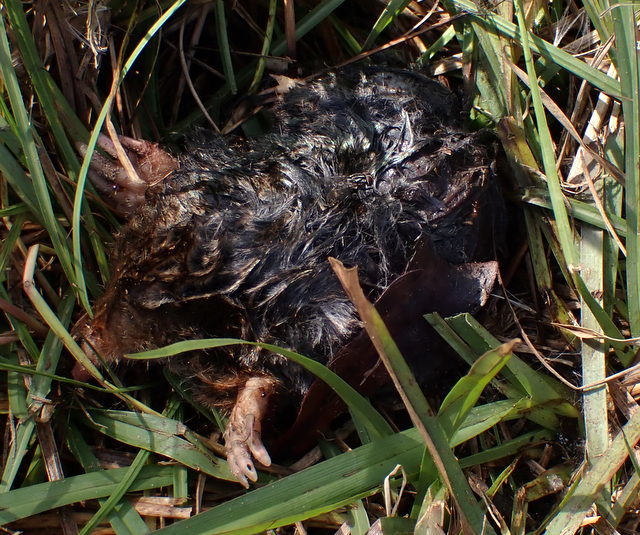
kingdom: Animalia
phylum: Chordata
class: Mammalia
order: Soricomorpha
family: Talpidae
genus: Scalopus
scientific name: Scalopus aquaticus
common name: Eastern mole
